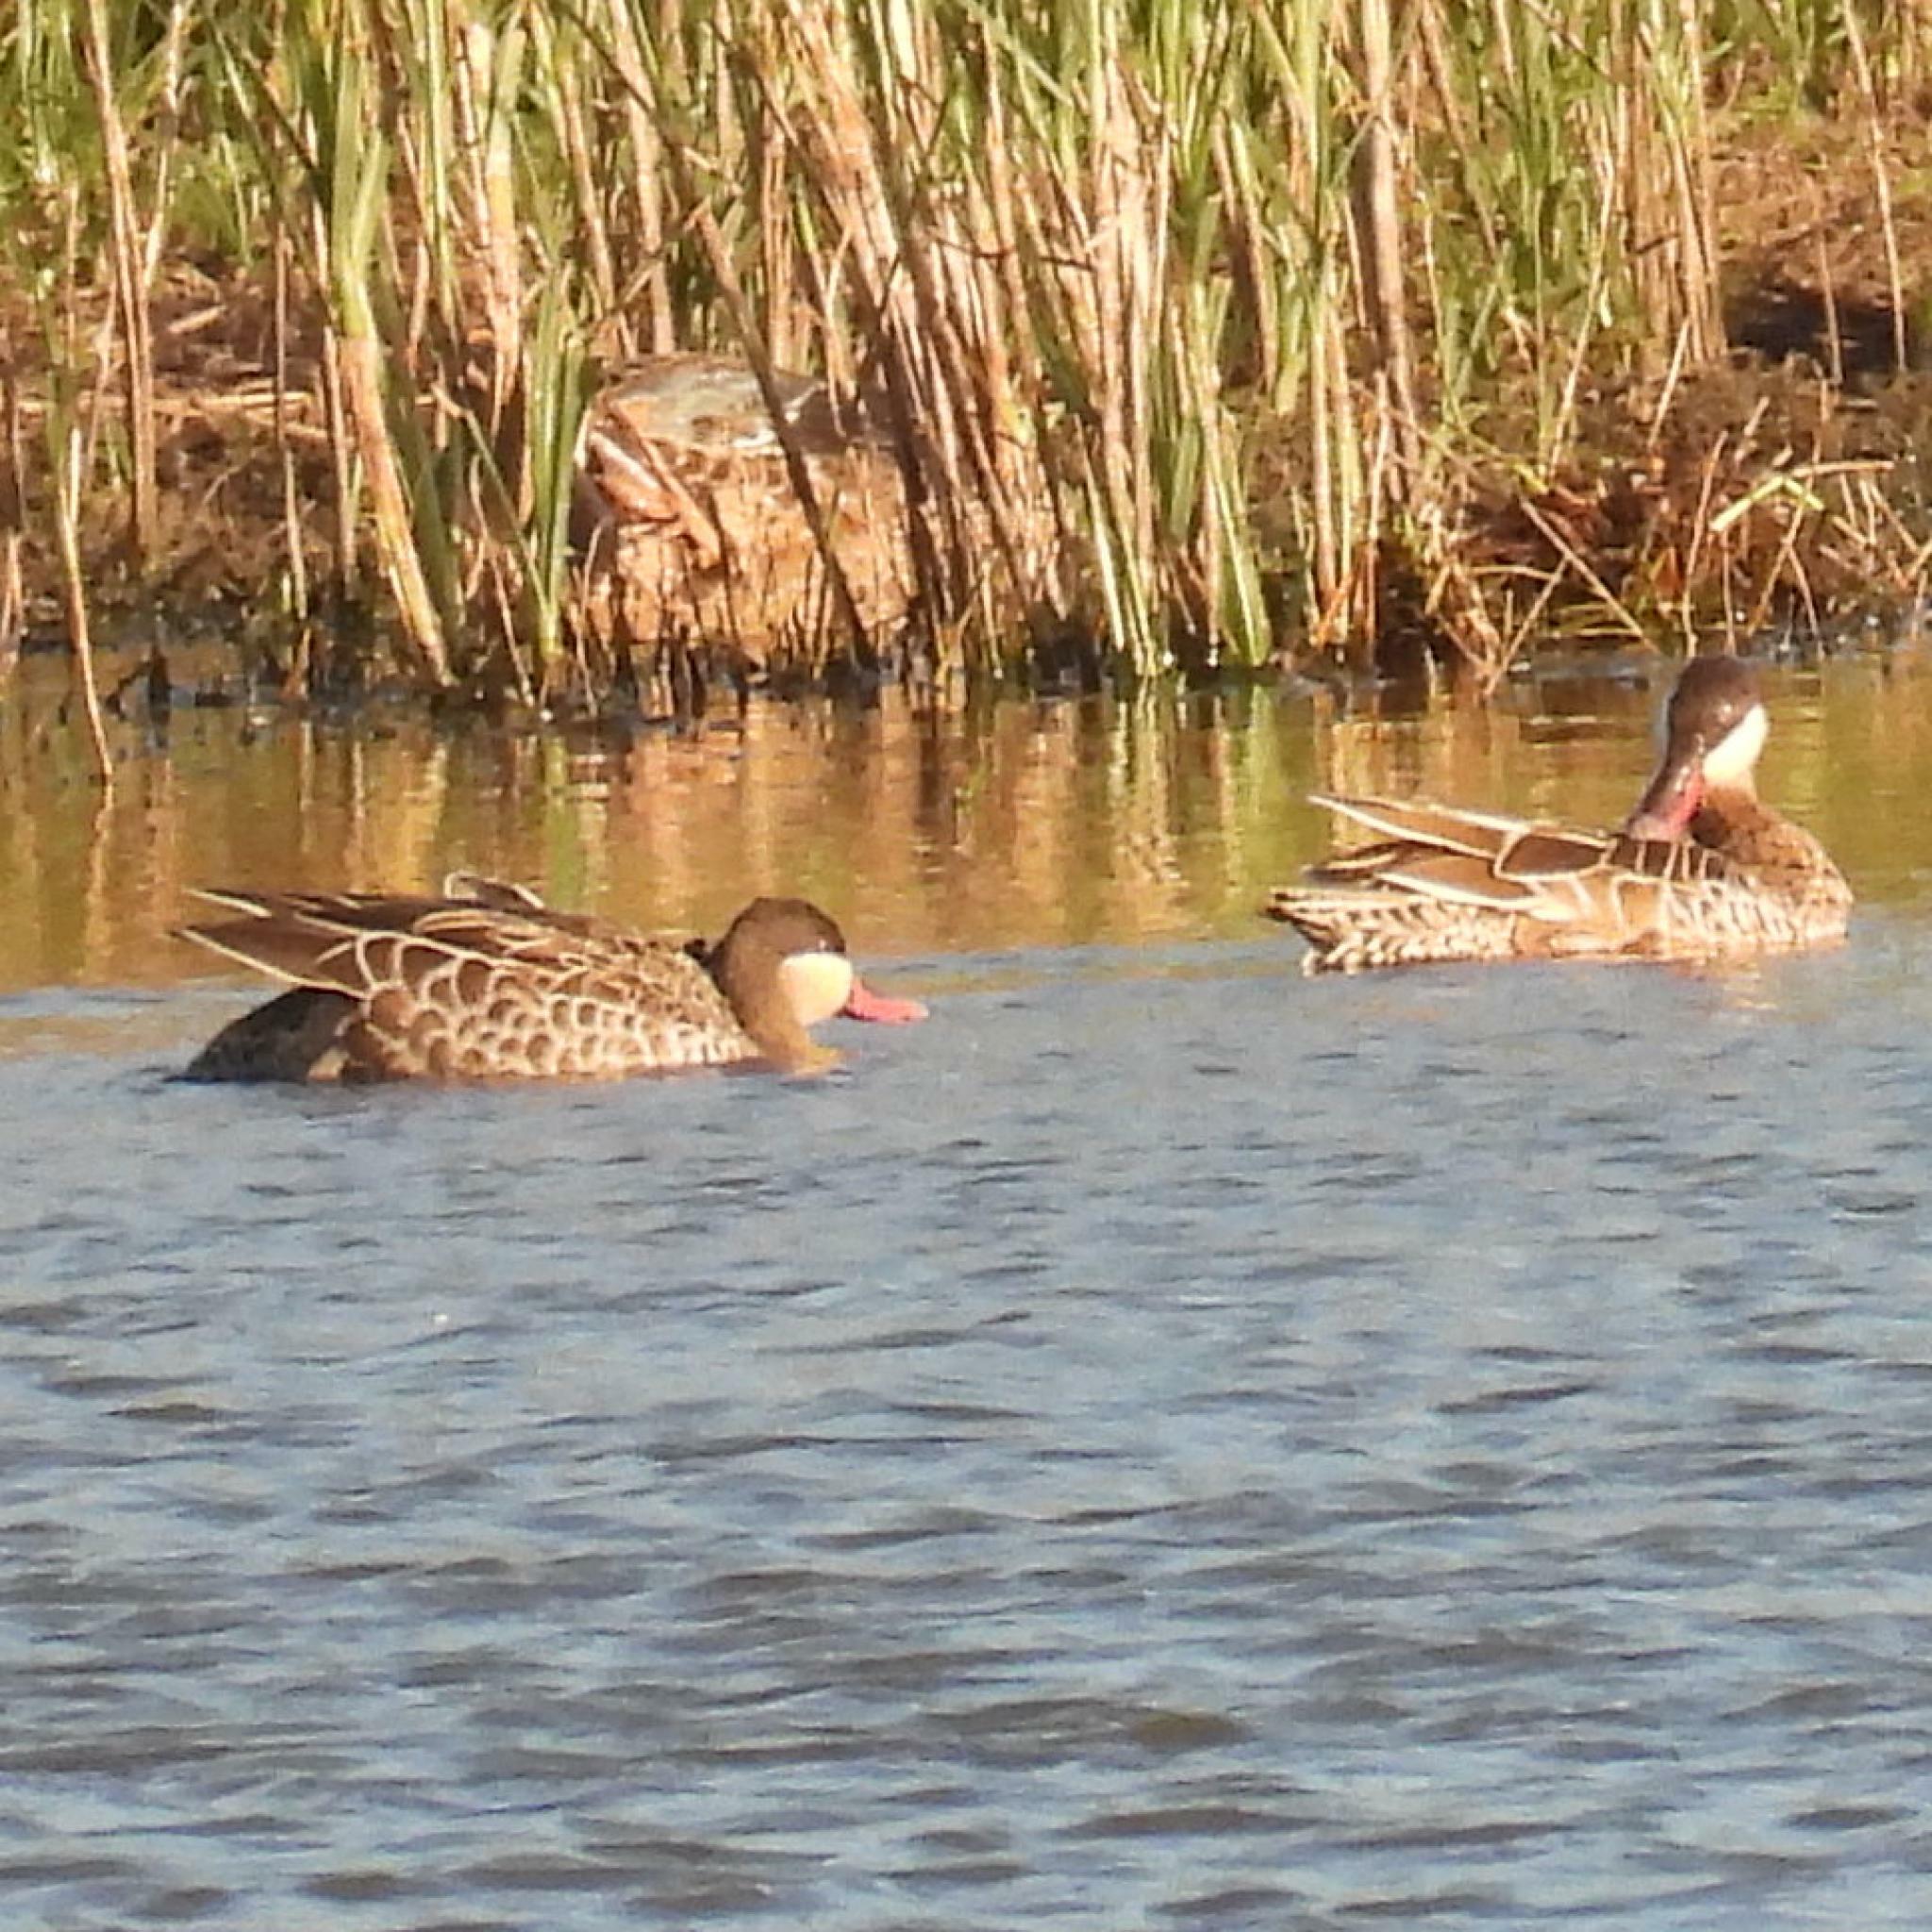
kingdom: Animalia
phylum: Chordata
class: Aves
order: Anseriformes
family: Anatidae
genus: Anas
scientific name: Anas erythrorhyncha
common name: Red-billed teal
